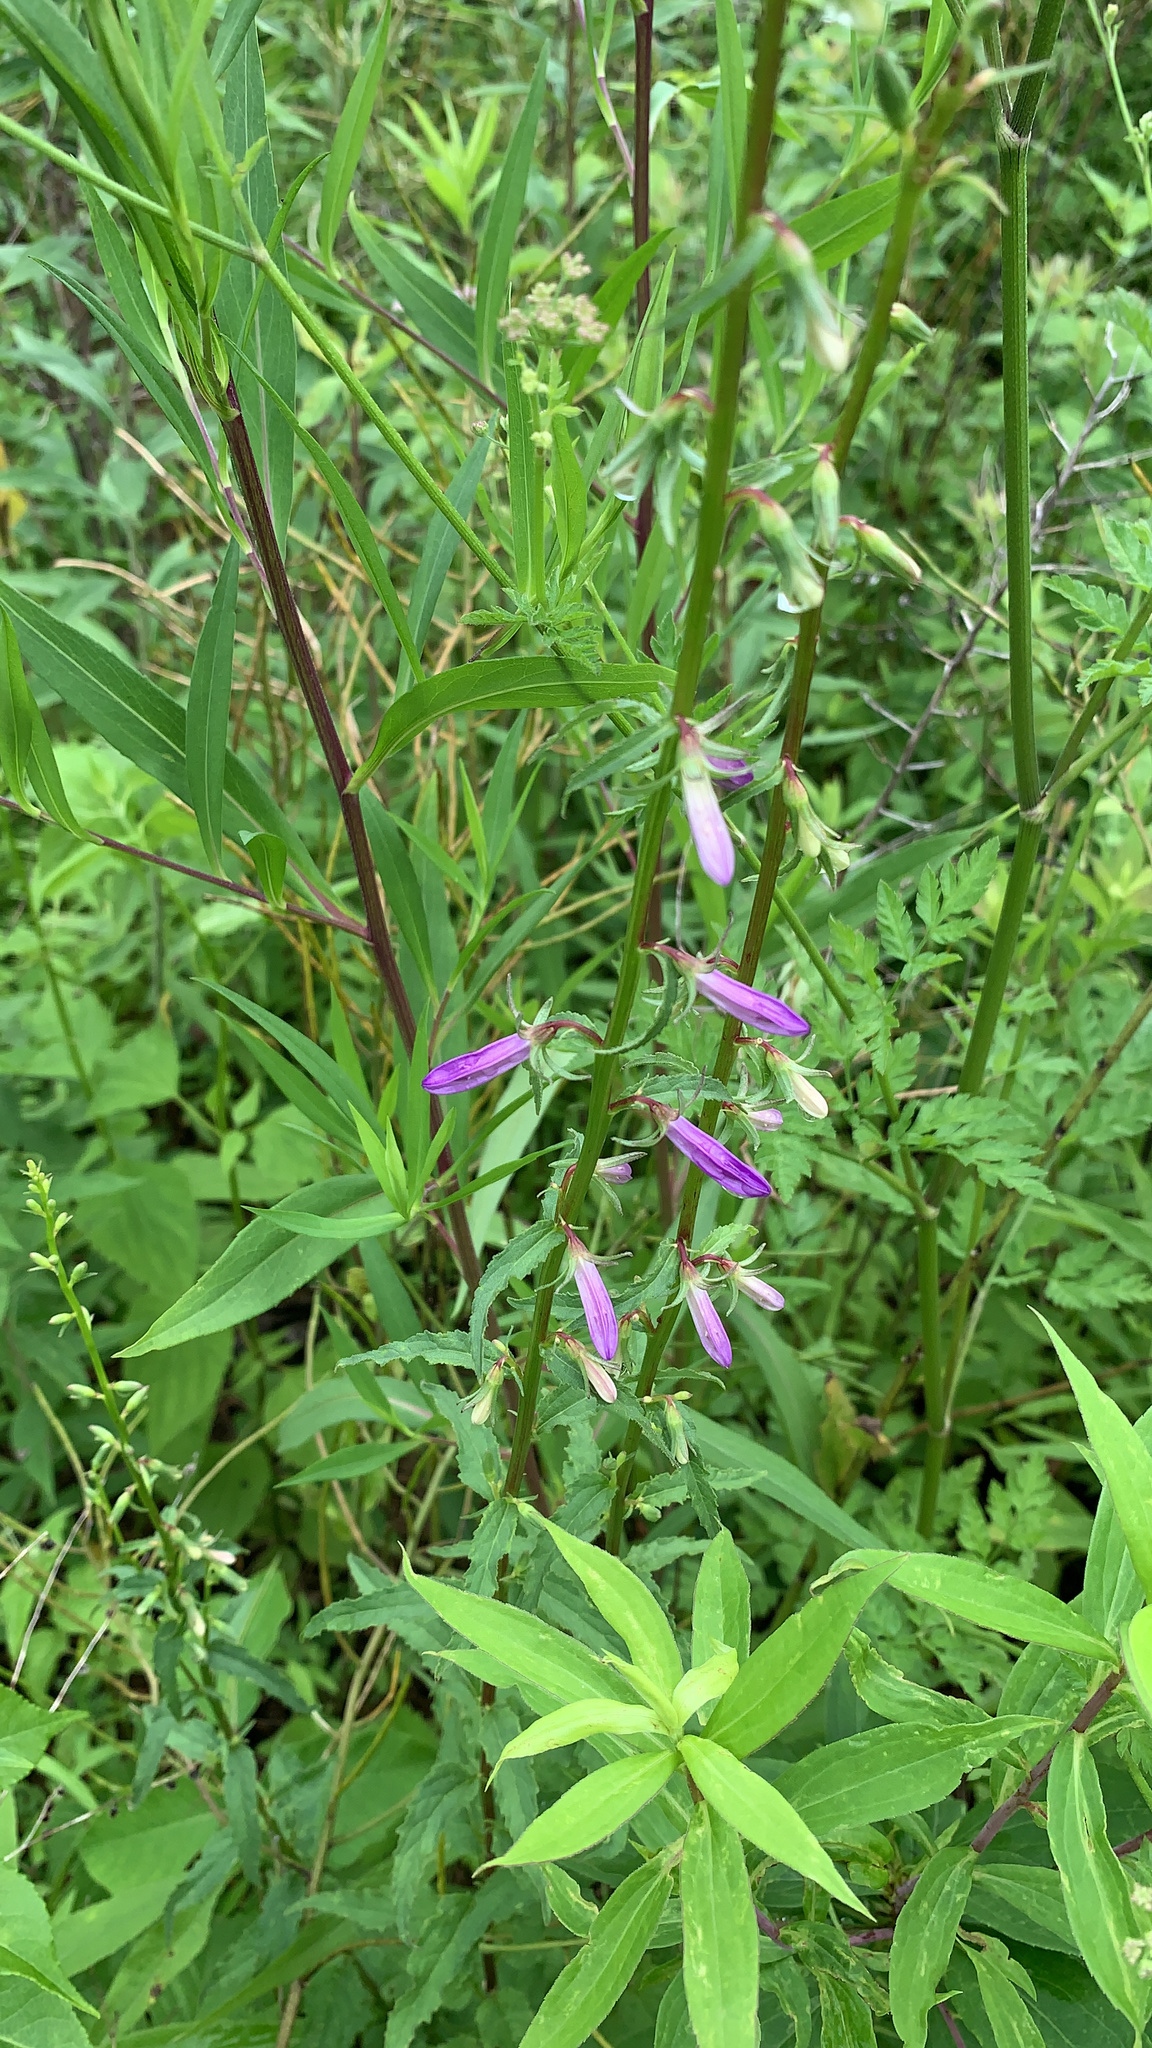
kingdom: Plantae
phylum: Tracheophyta
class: Magnoliopsida
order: Asterales
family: Campanulaceae
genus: Campanula
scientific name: Campanula rapunculoides
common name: Creeping bellflower
